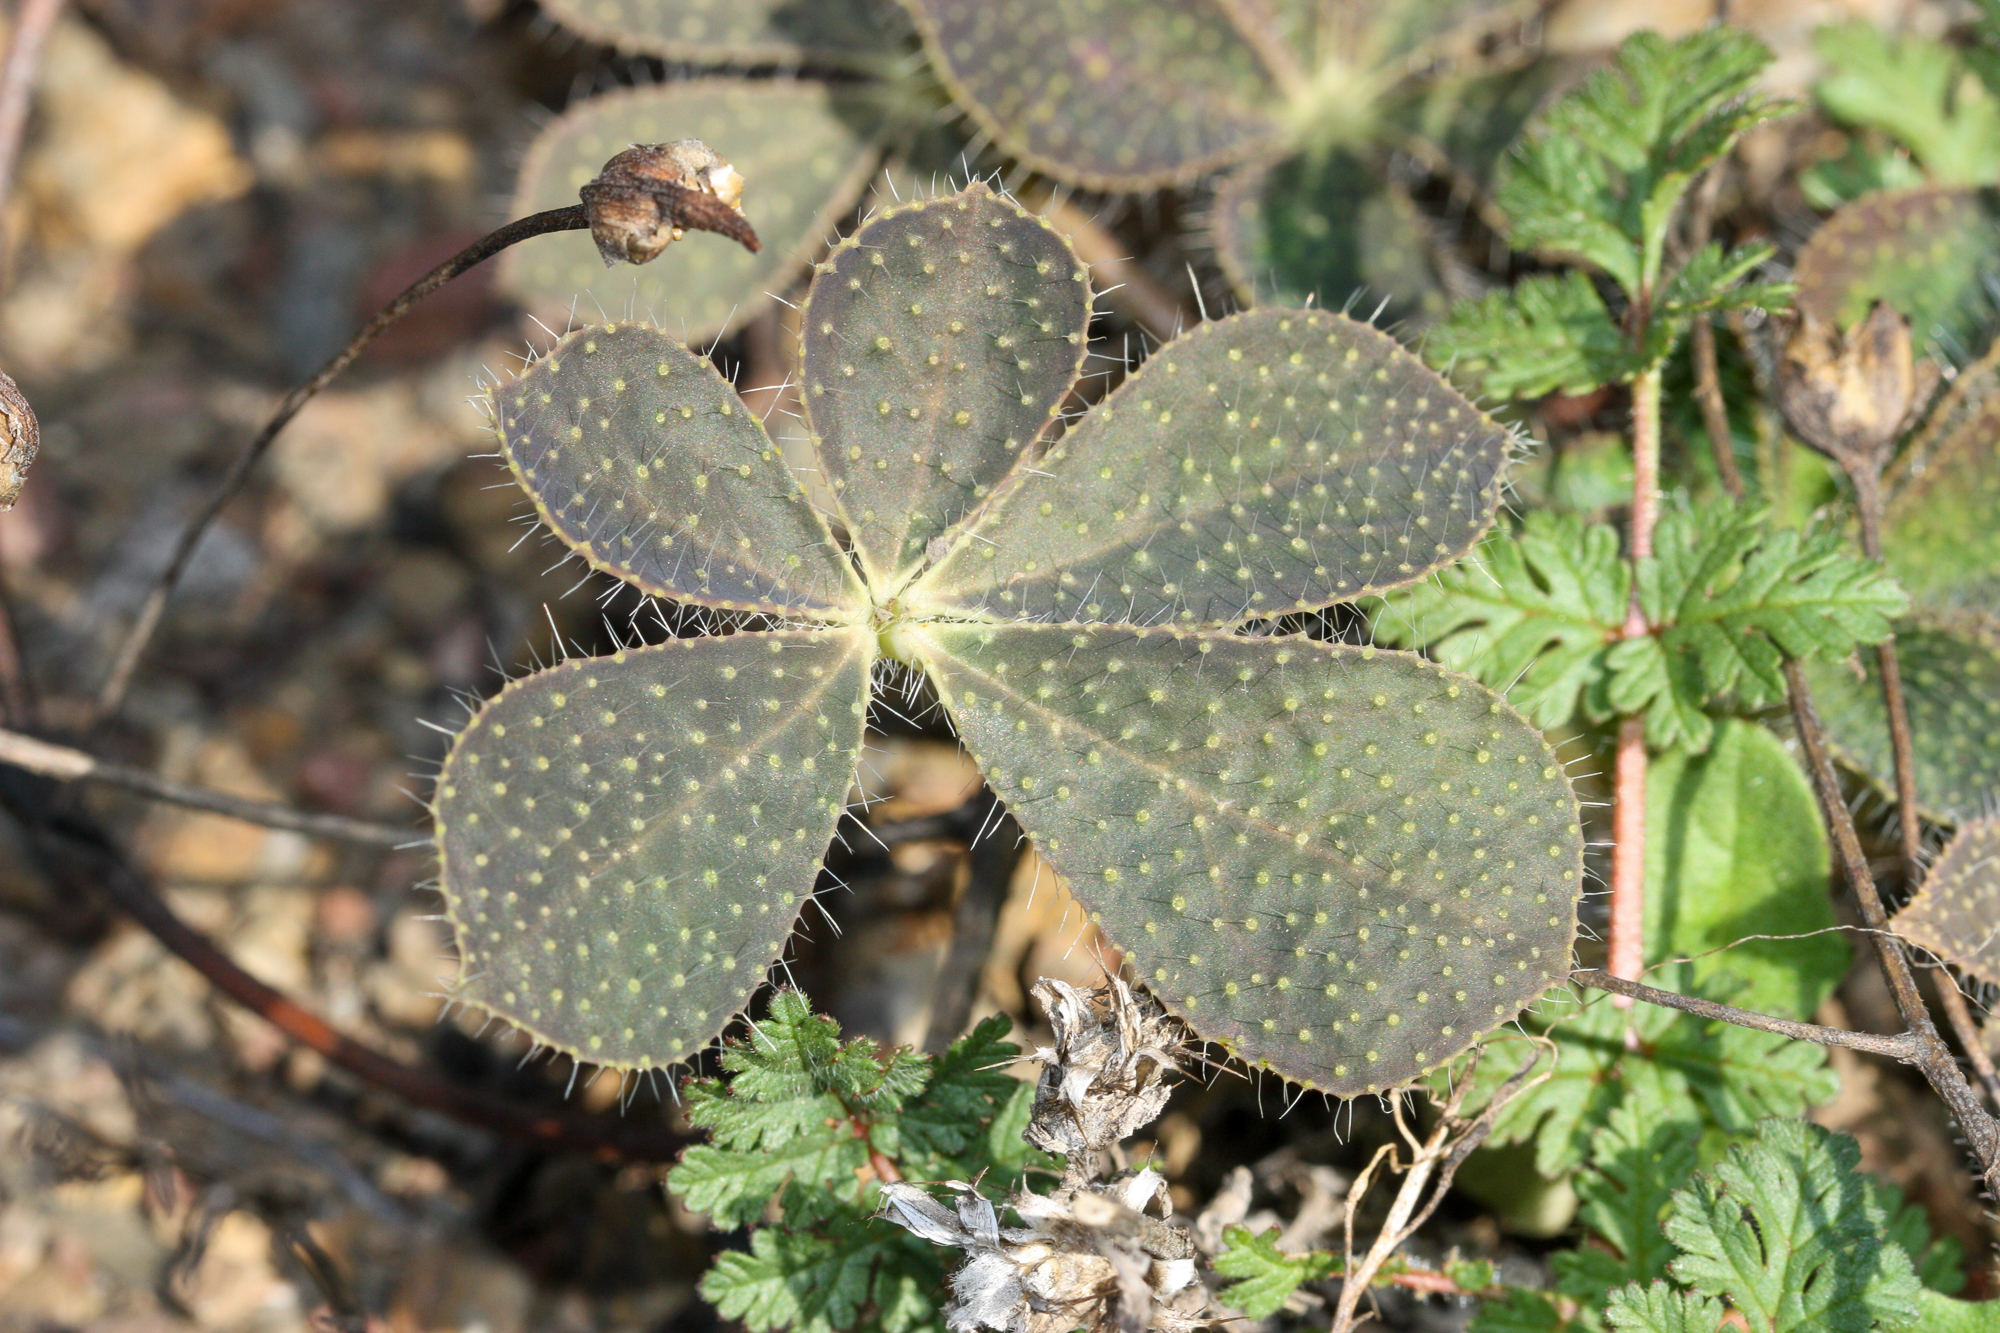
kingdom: Plantae
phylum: Tracheophyta
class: Magnoliopsida
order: Fabales
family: Fabaceae
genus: Lupinus
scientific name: Lupinus hirsutissimus
